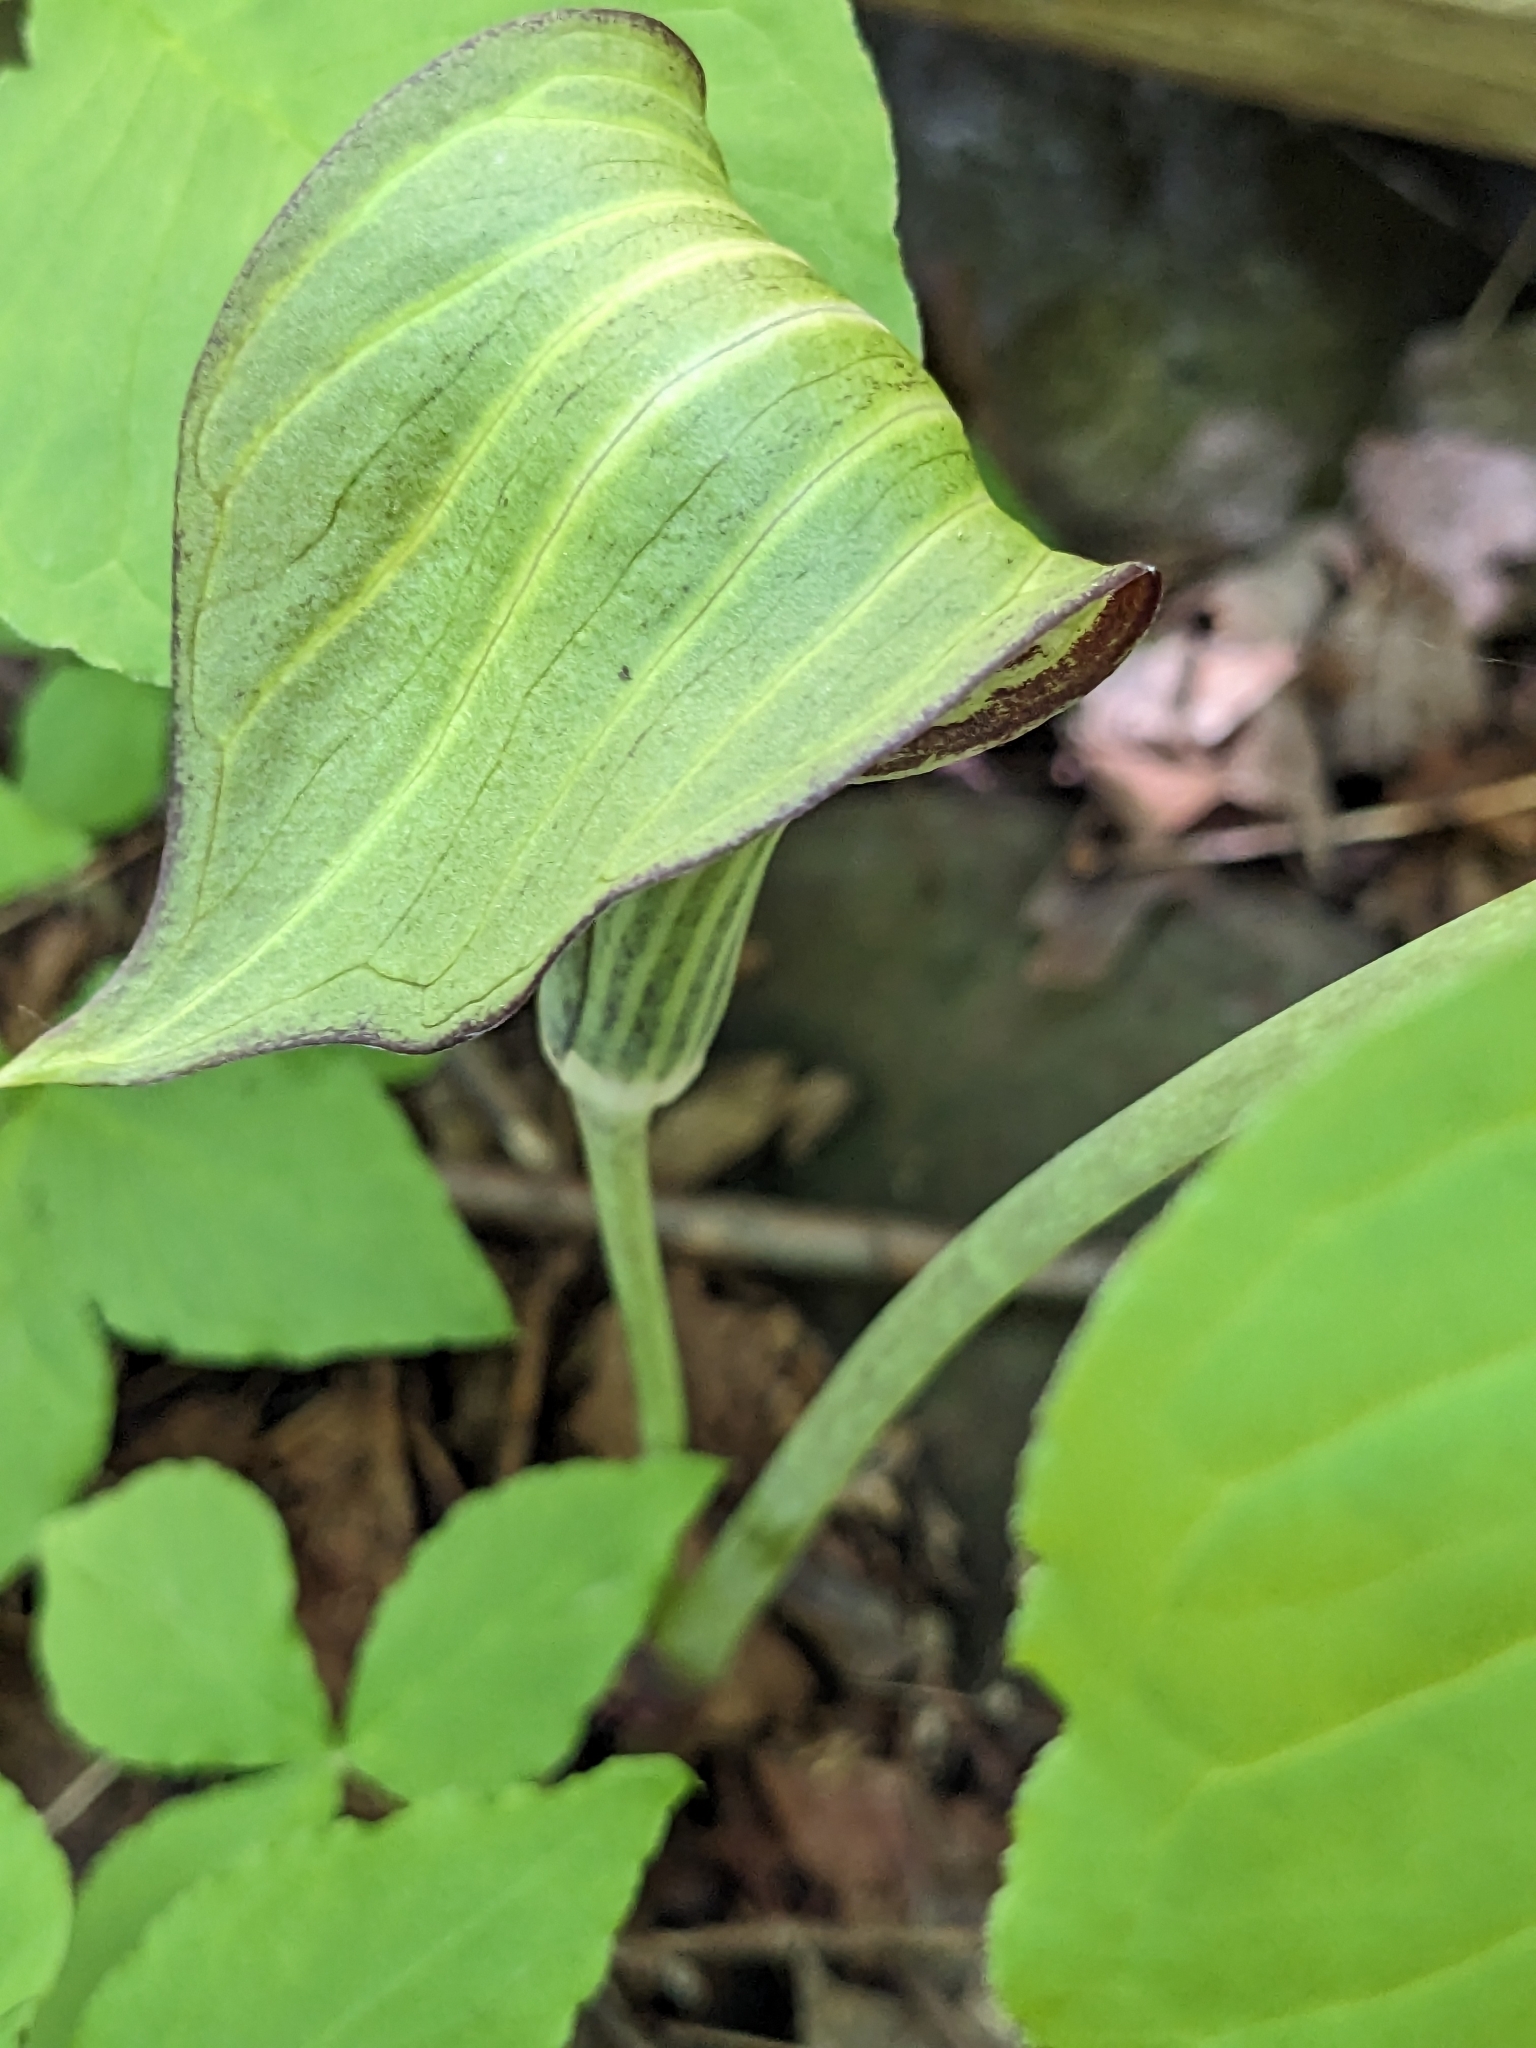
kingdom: Plantae
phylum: Tracheophyta
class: Liliopsida
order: Alismatales
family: Araceae
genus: Arisaema
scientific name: Arisaema triphyllum
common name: Jack-in-the-pulpit
